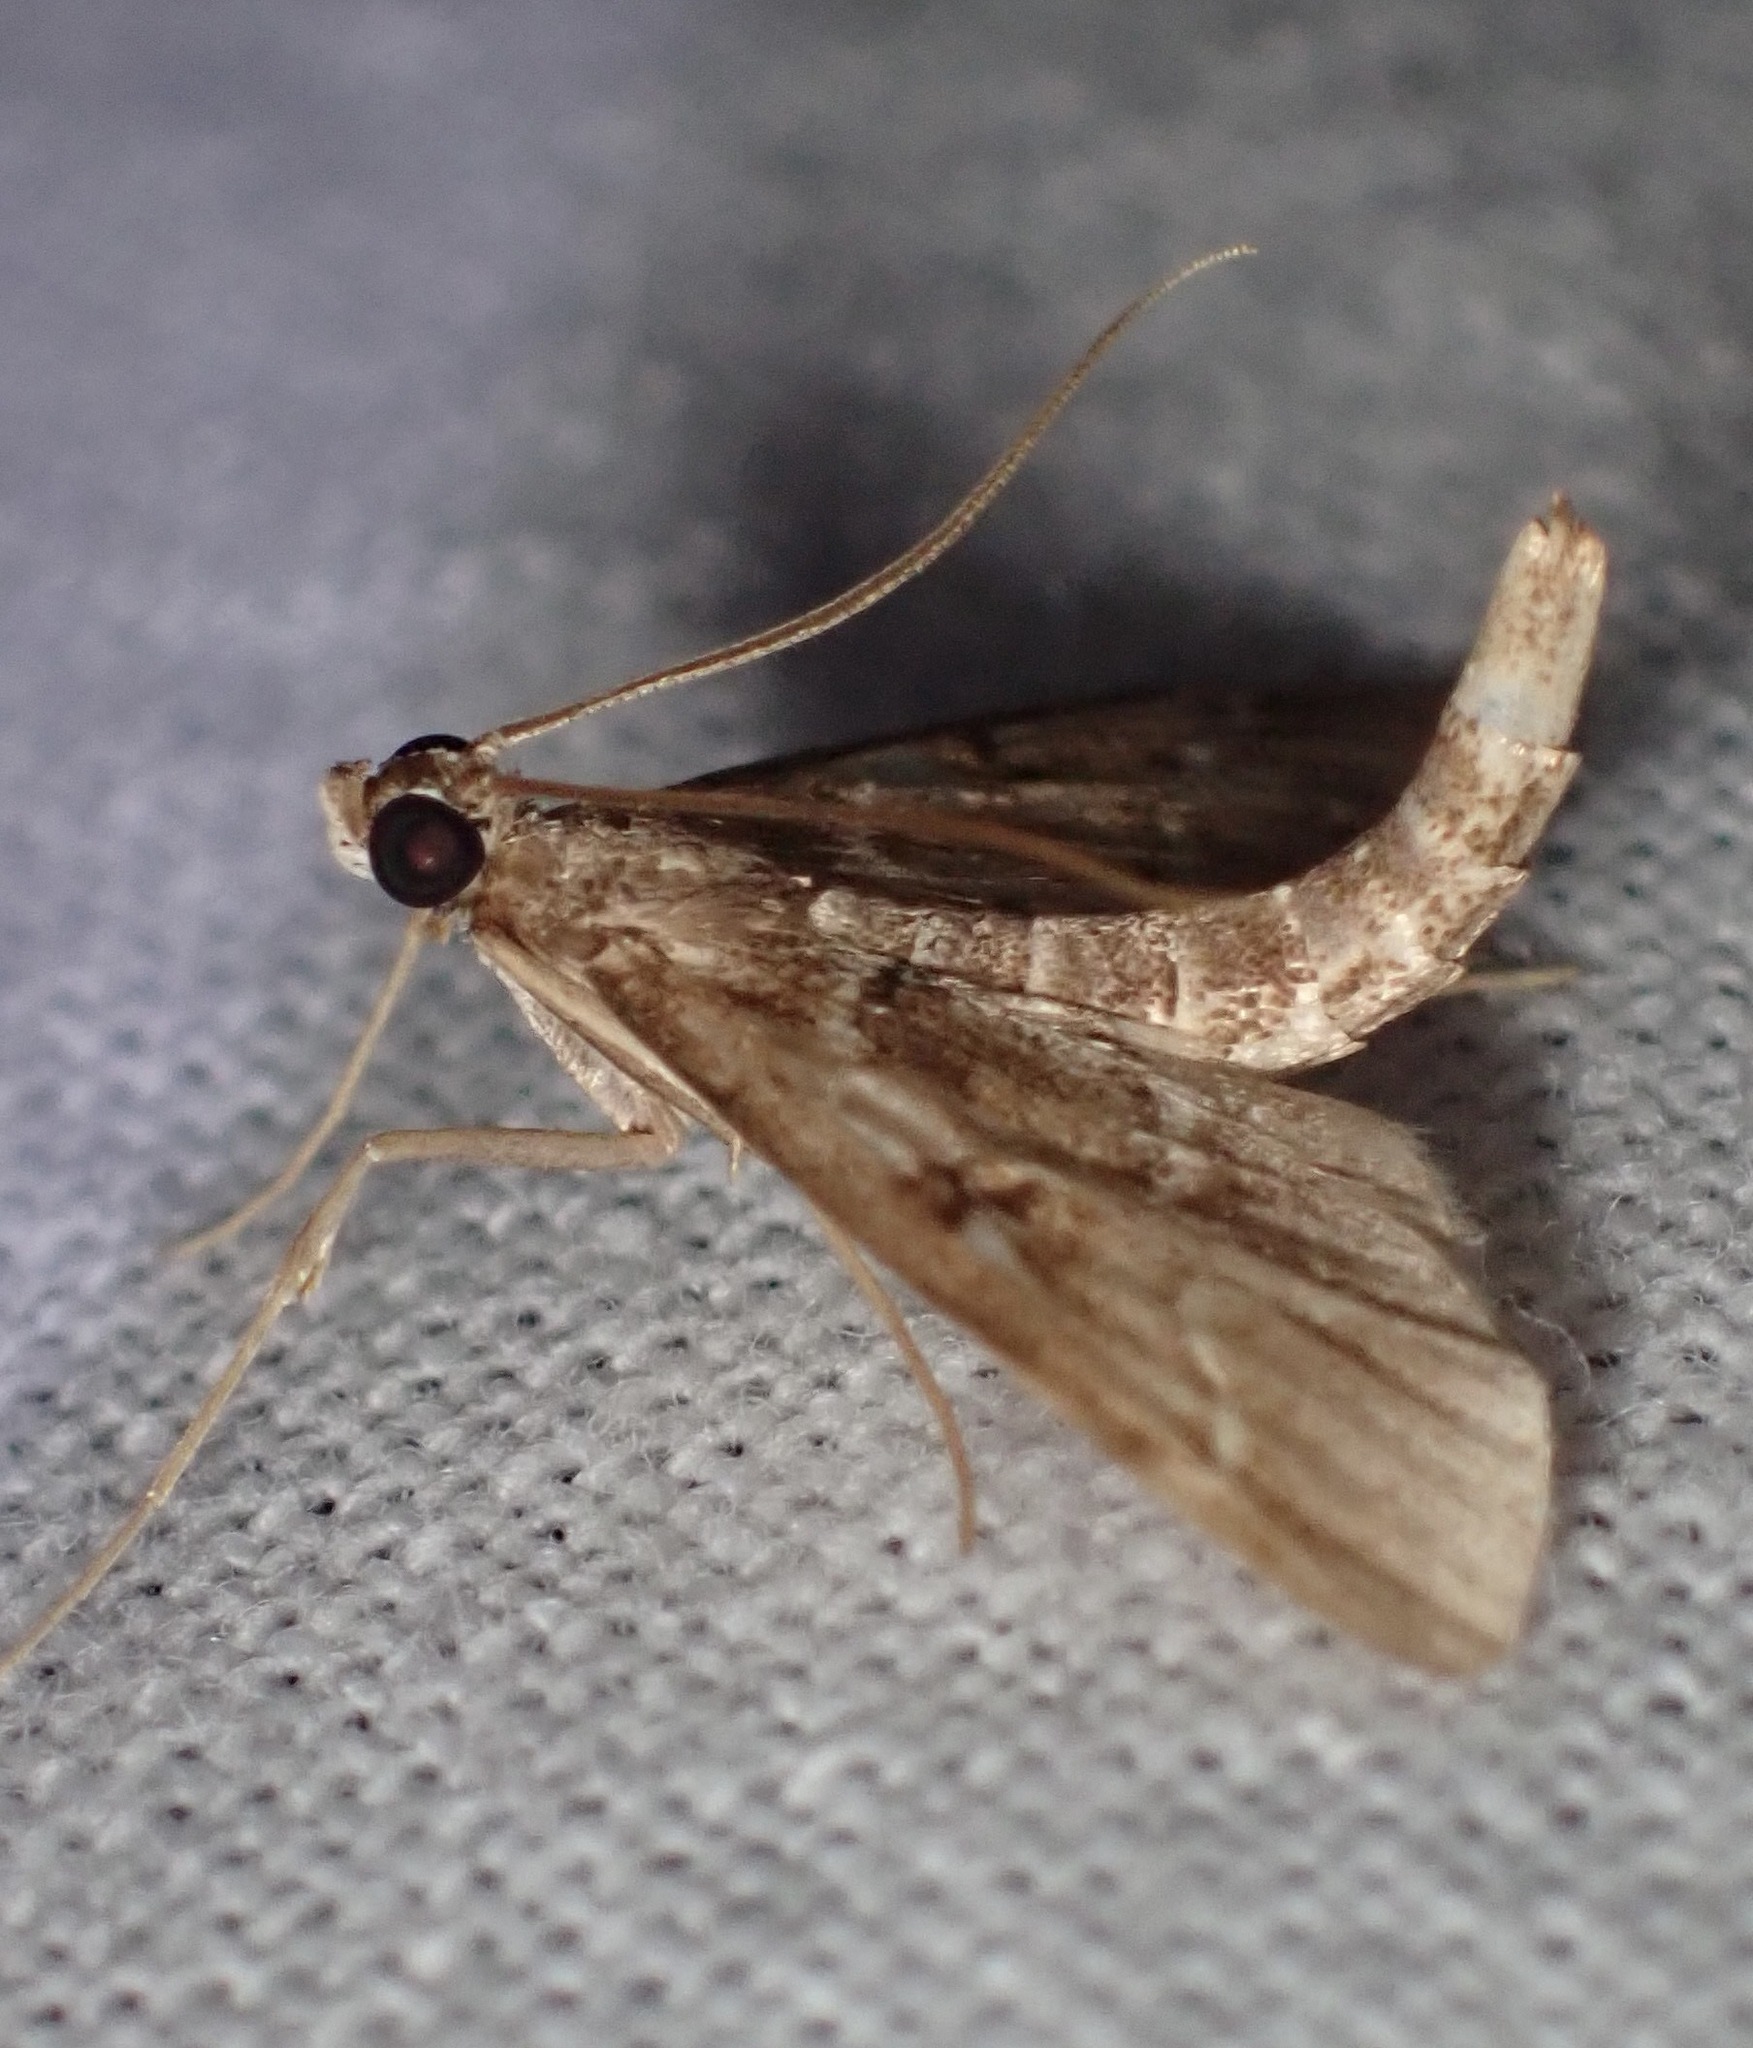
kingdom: Animalia
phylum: Arthropoda
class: Insecta
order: Lepidoptera
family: Crambidae
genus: Duponchelia
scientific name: Duponchelia fovealis
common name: Crambid moth
